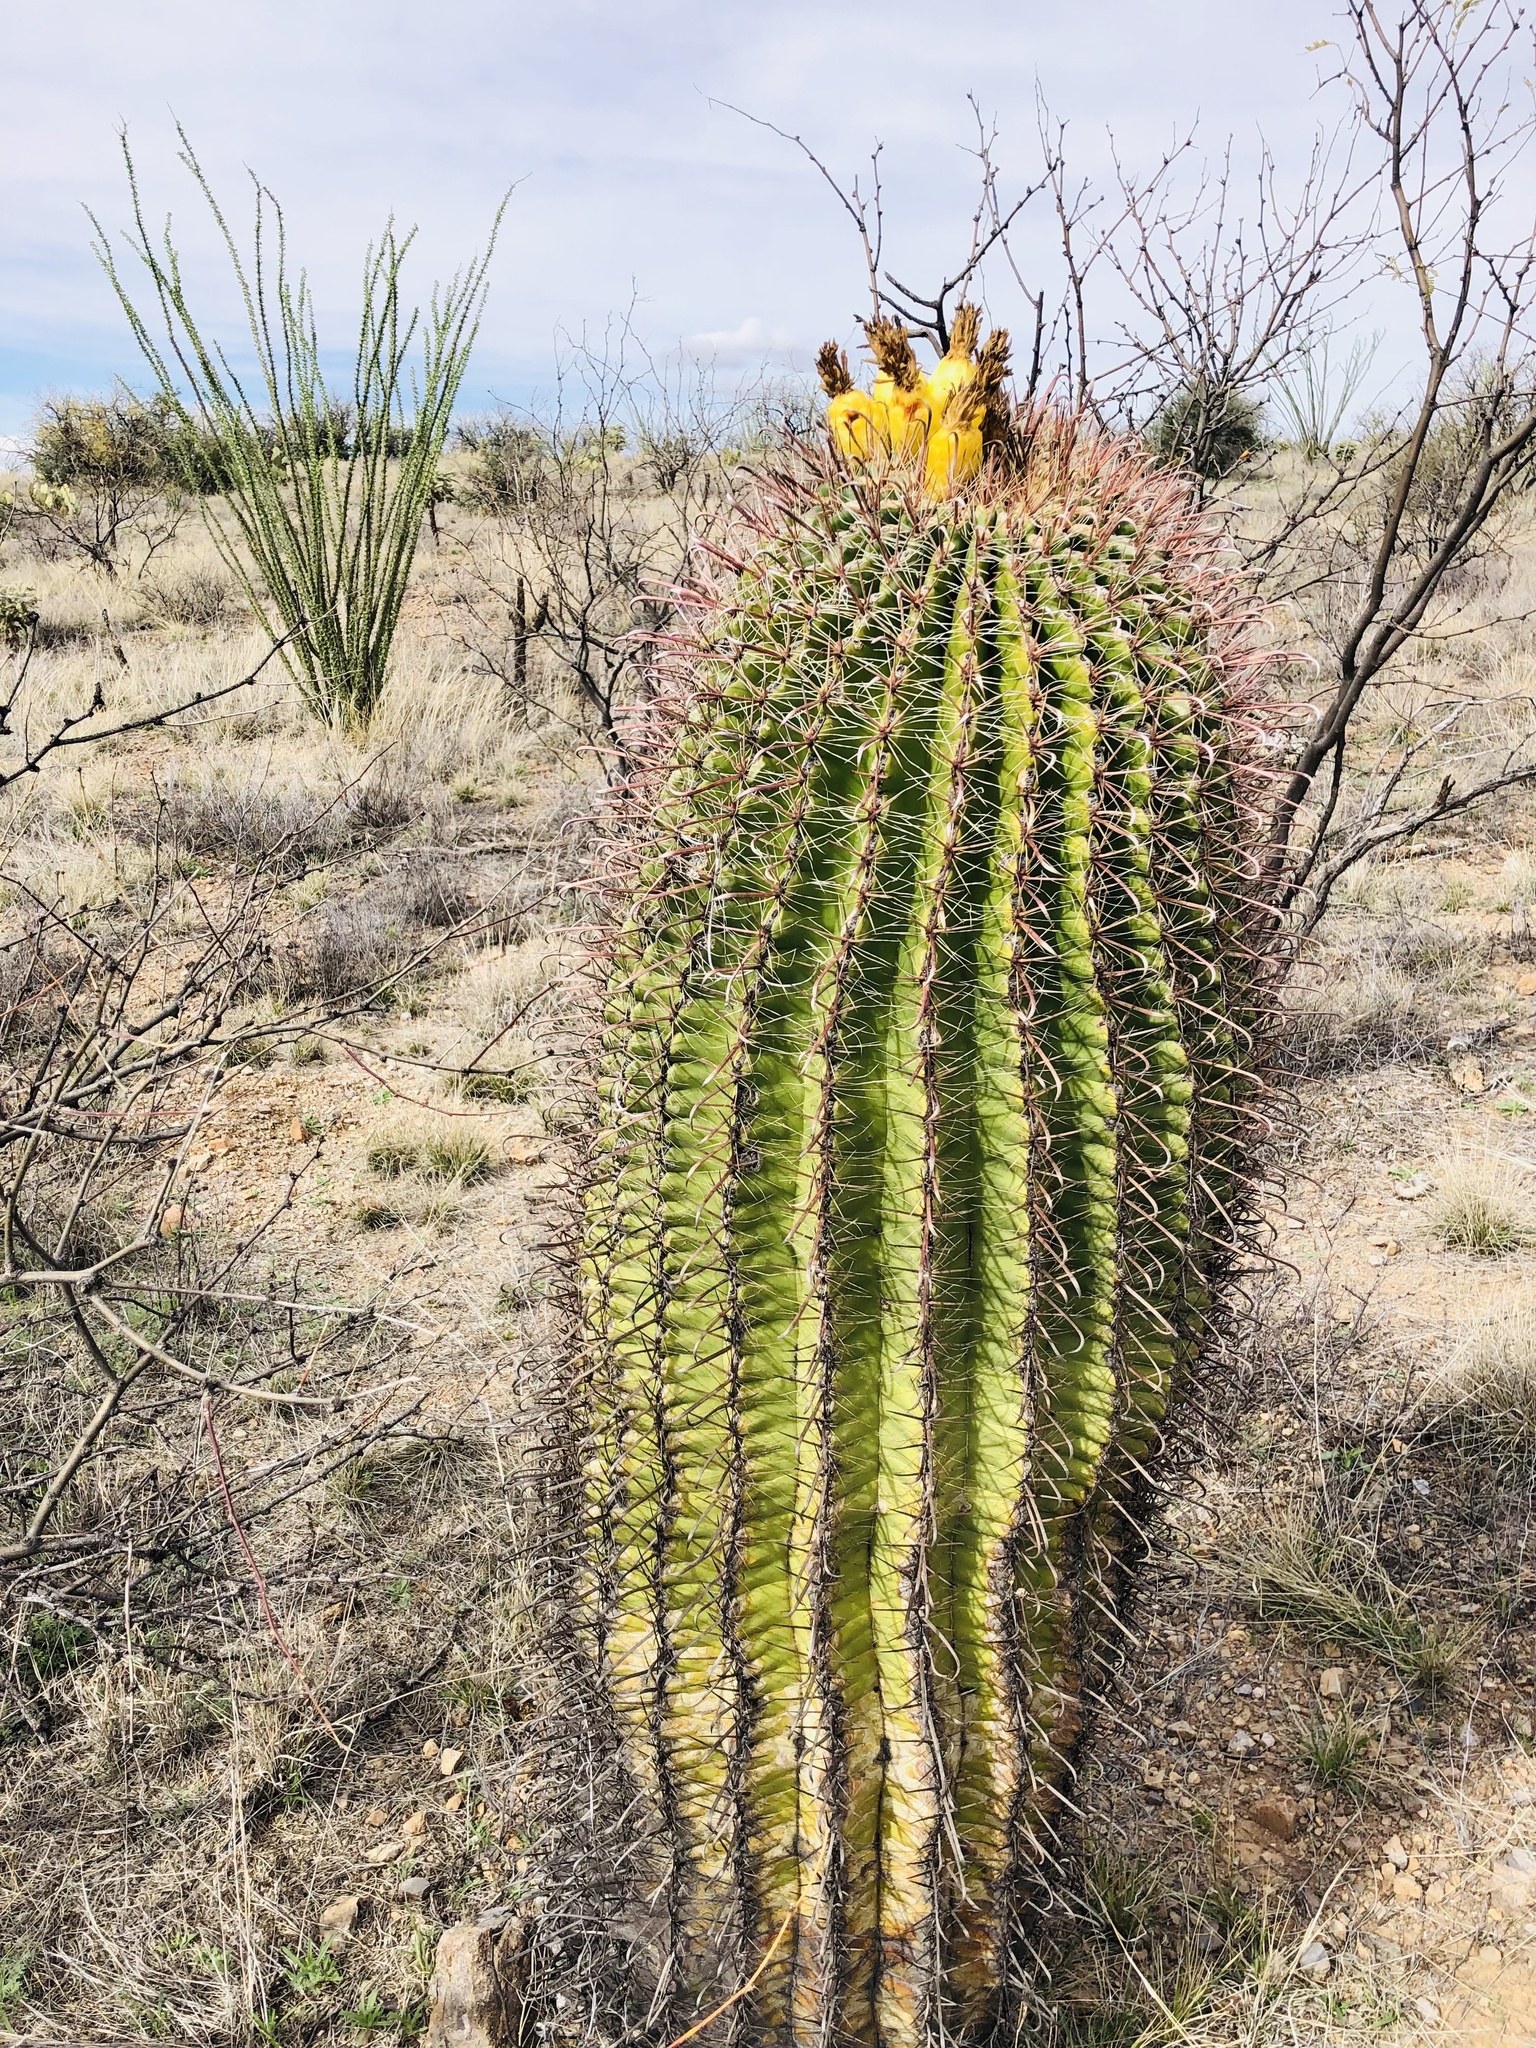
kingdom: Plantae
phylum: Tracheophyta
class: Magnoliopsida
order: Caryophyllales
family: Cactaceae
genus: Ferocactus
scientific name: Ferocactus wislizeni
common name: Candy barrel cactus
